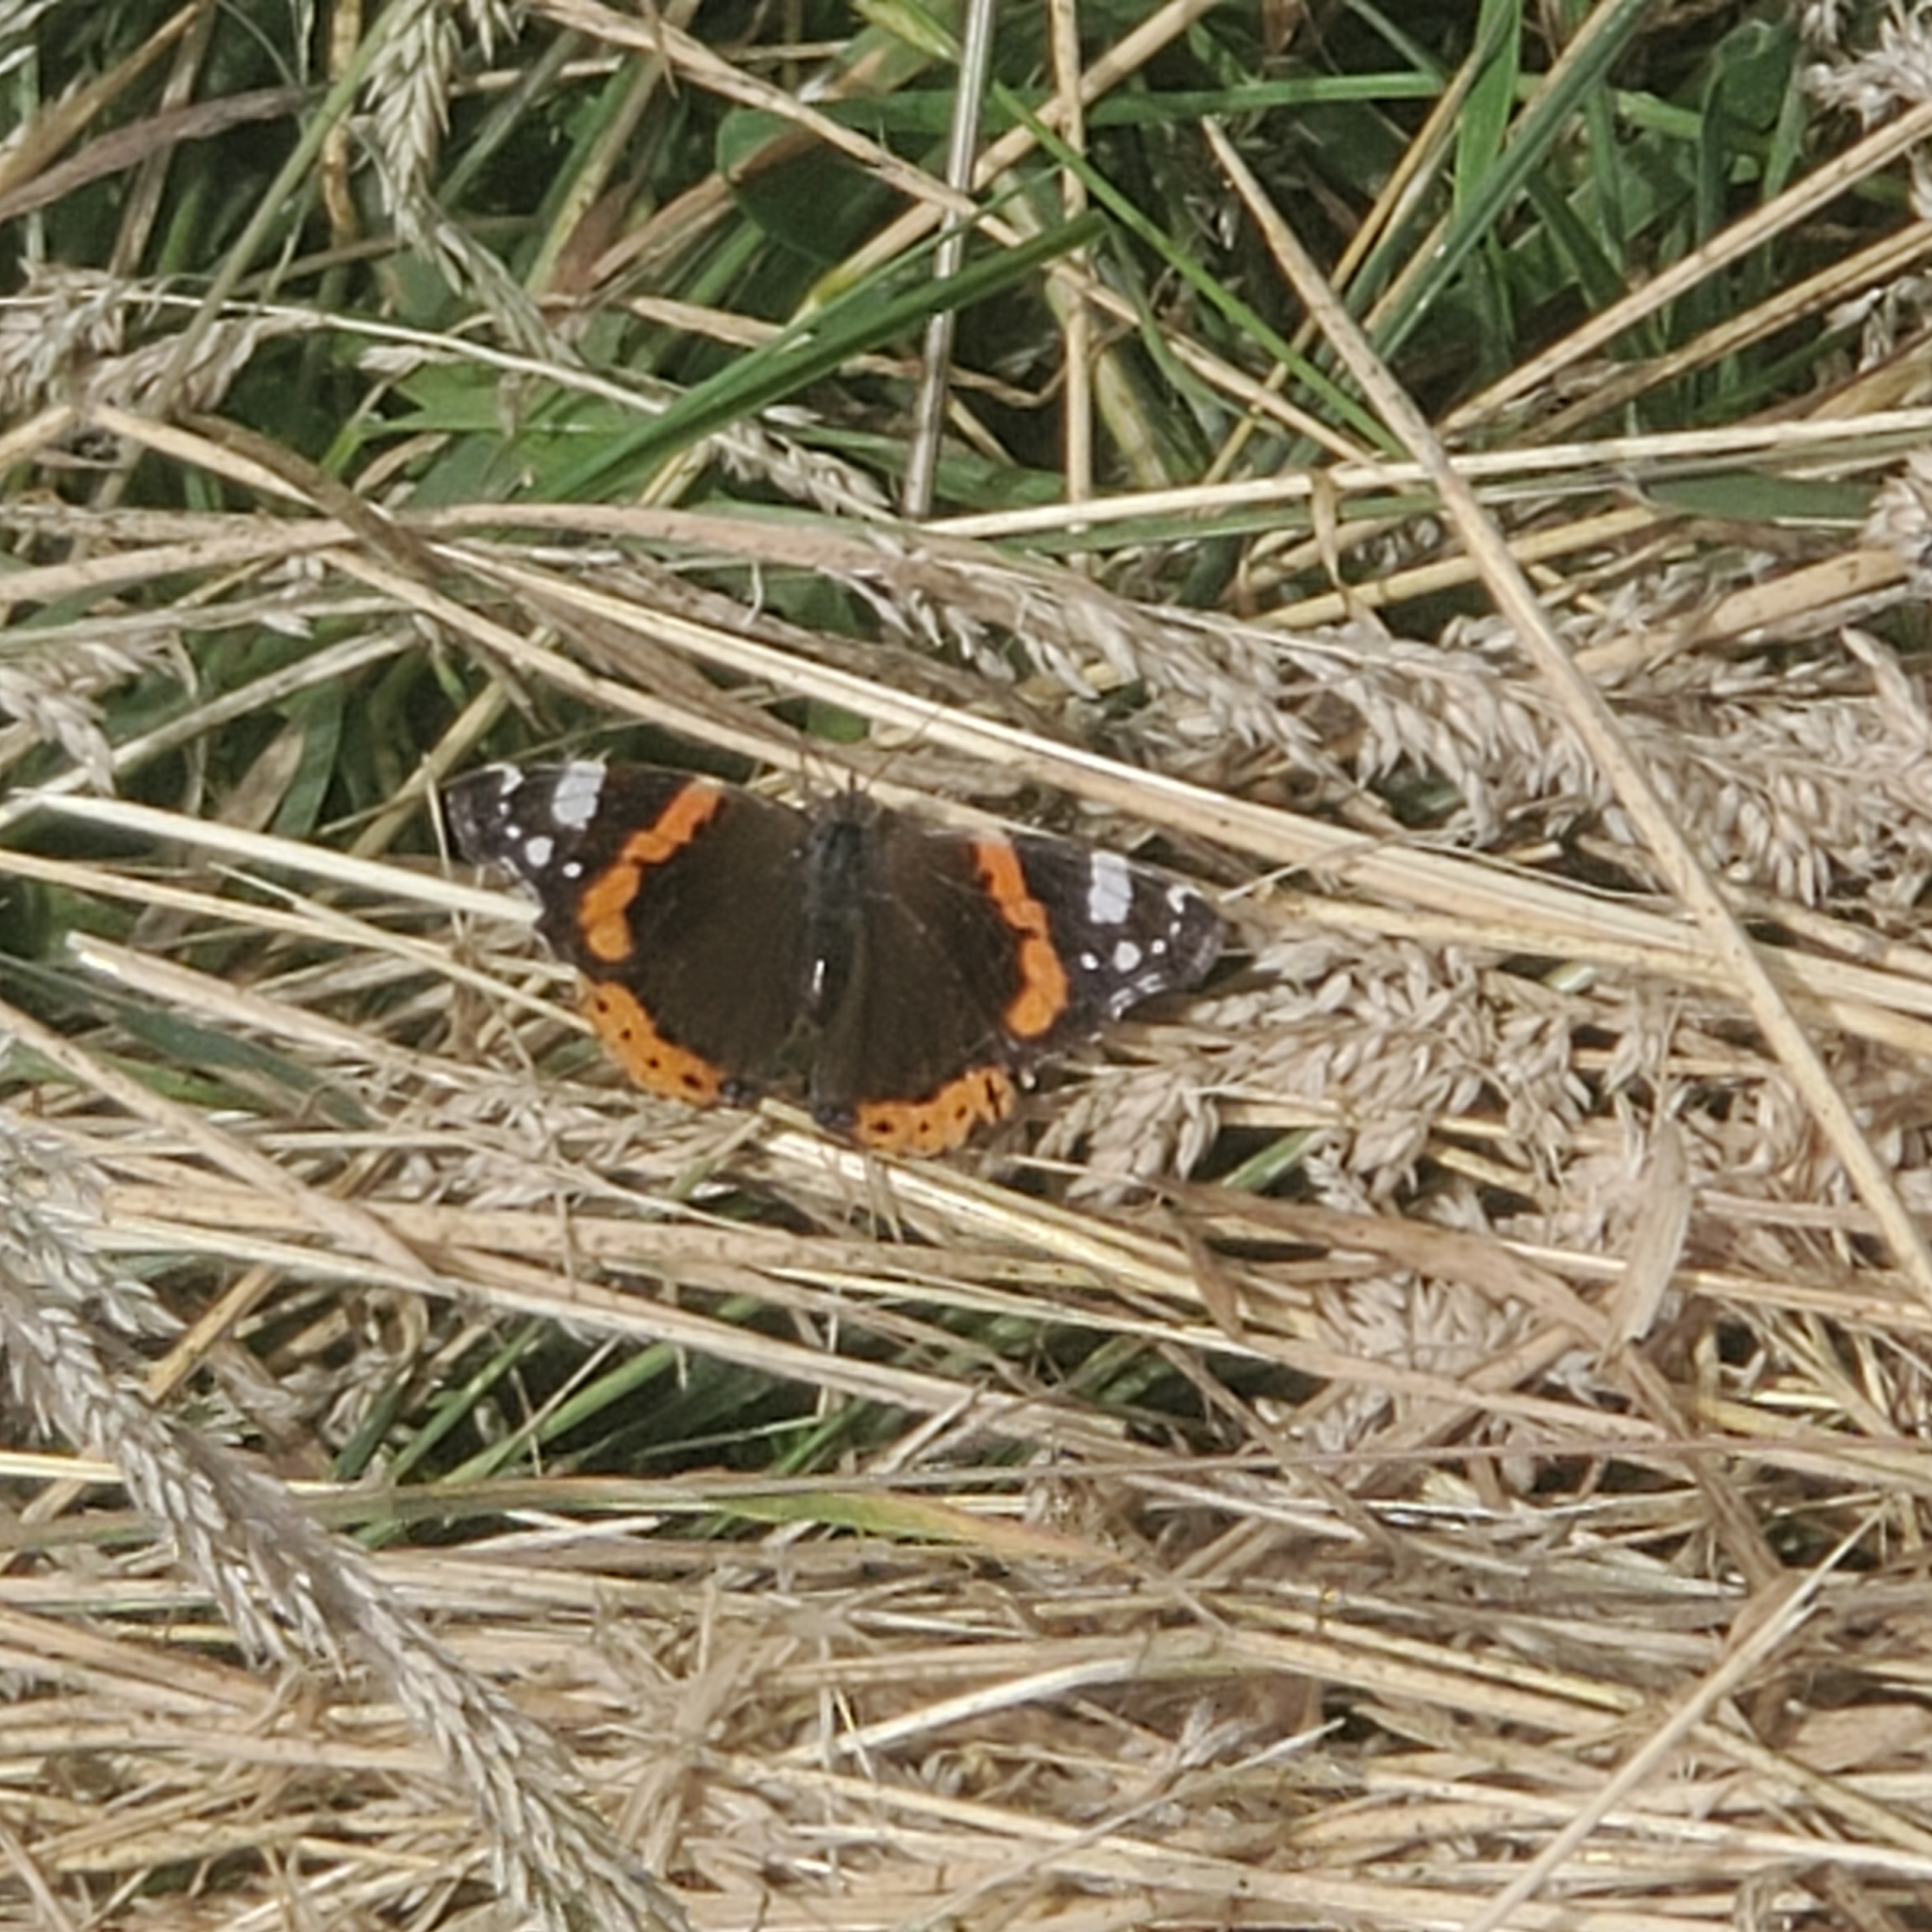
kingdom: Animalia
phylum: Arthropoda
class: Insecta
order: Lepidoptera
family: Nymphalidae
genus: Vanessa
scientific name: Vanessa atalanta
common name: Red admiral
